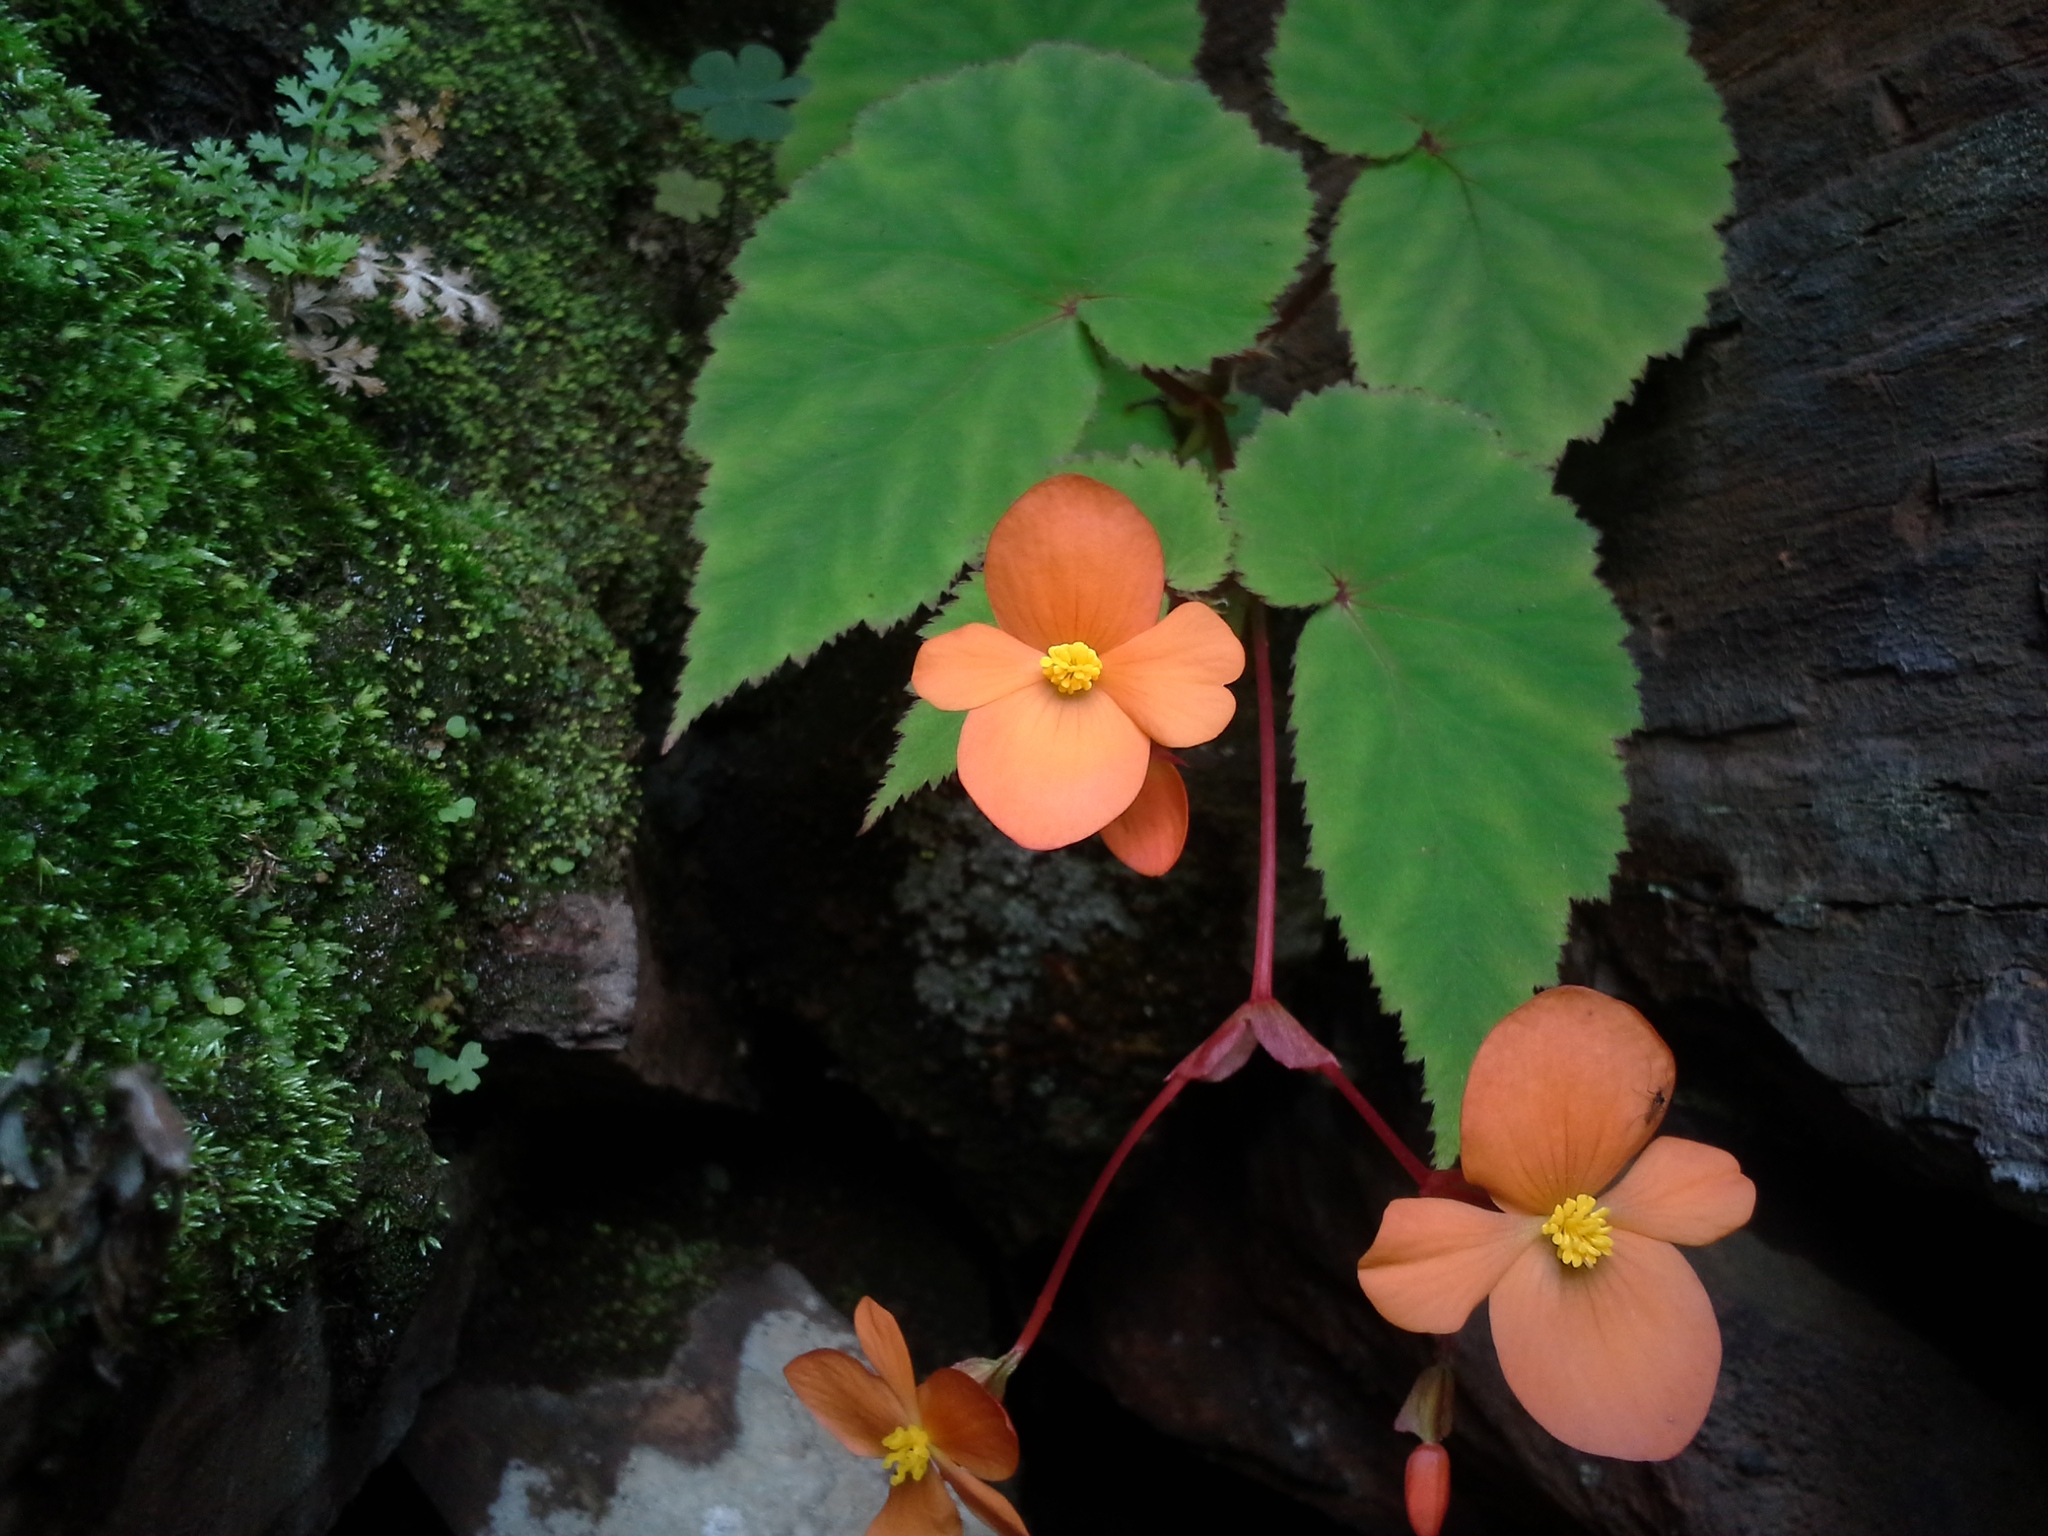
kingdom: Plantae
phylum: Tracheophyta
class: Magnoliopsida
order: Cucurbitales
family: Begoniaceae
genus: Begonia
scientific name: Begonia sutherlandii
